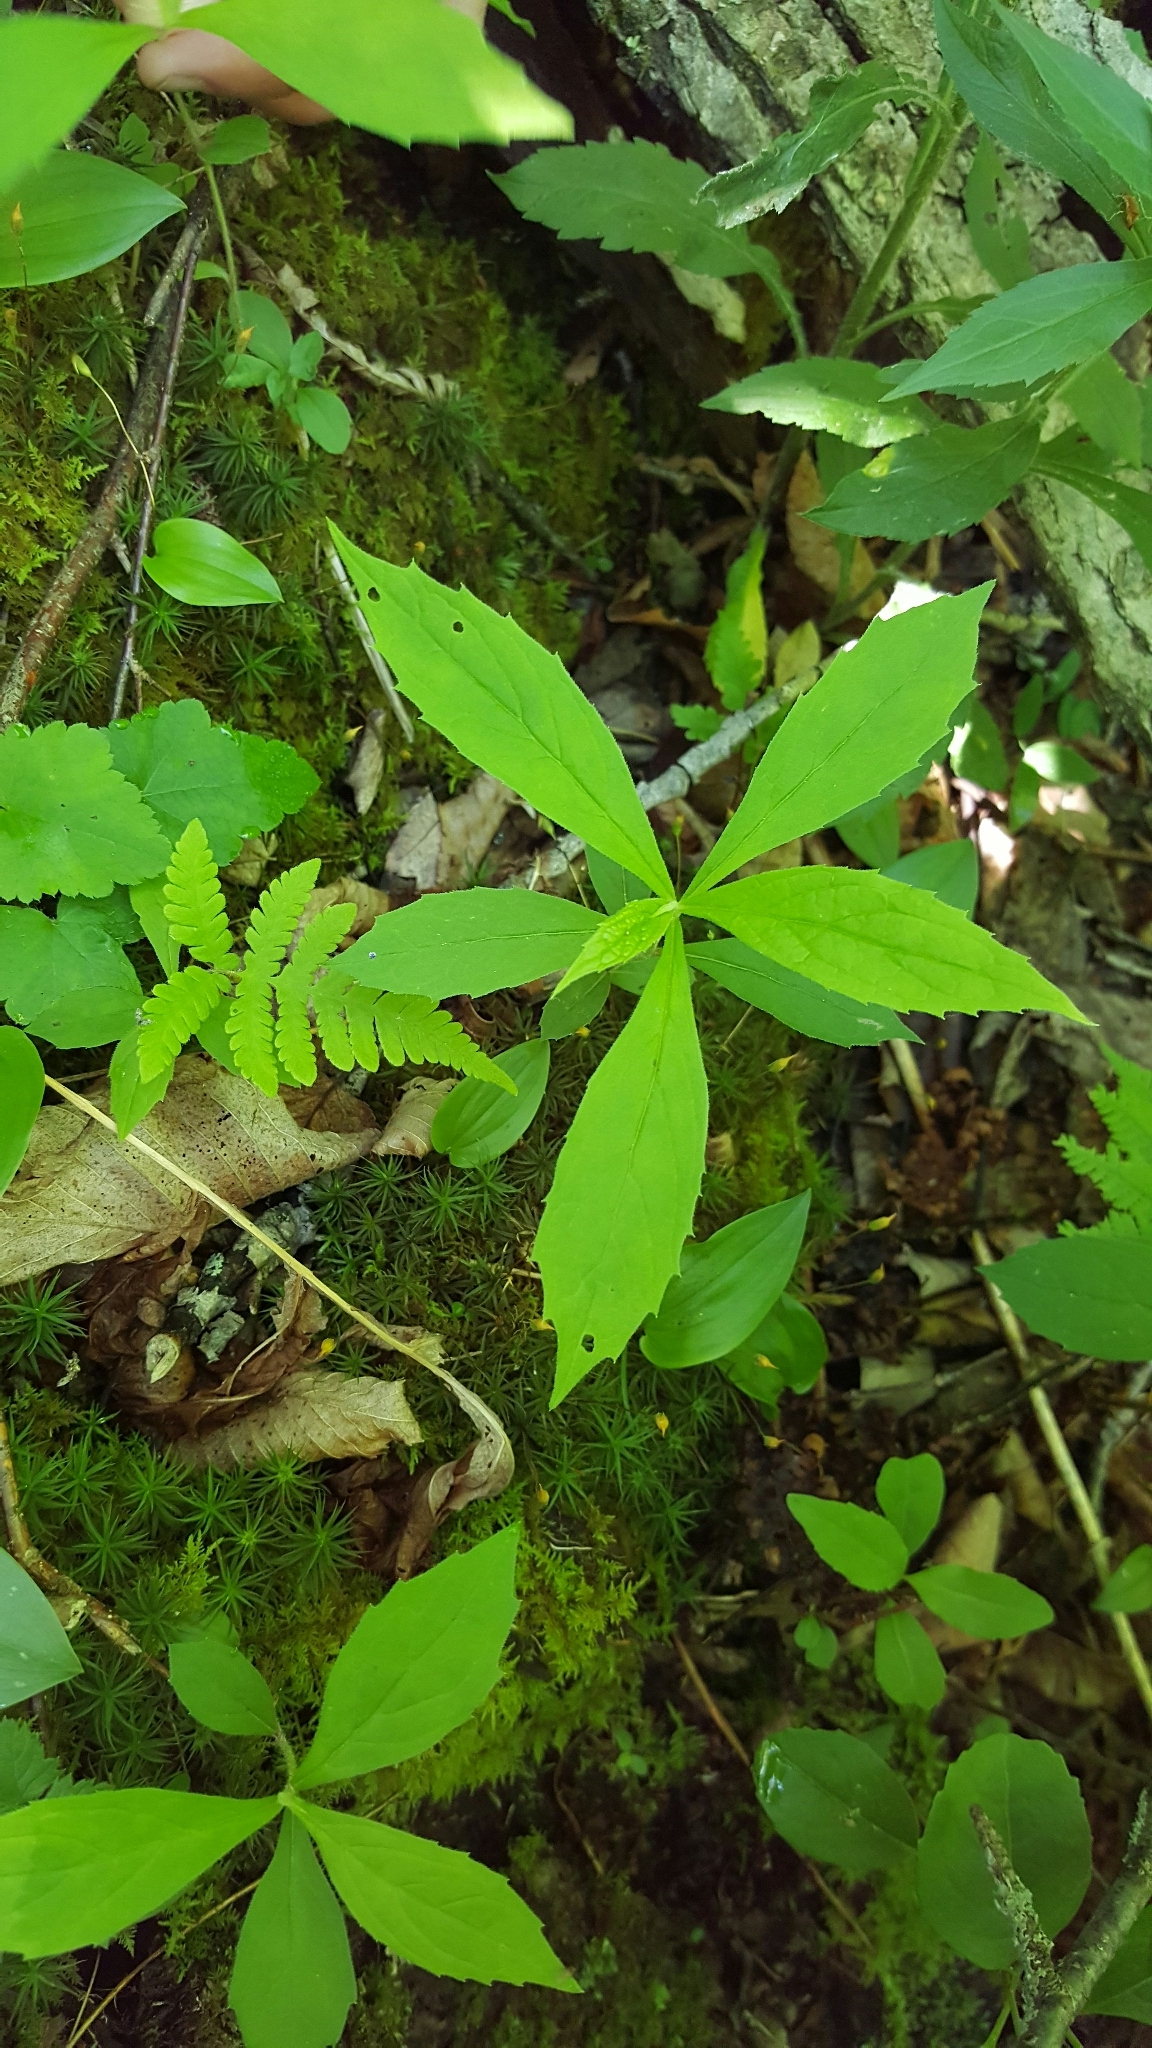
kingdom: Plantae
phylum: Tracheophyta
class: Magnoliopsida
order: Asterales
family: Asteraceae
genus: Oclemena
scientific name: Oclemena acuminata
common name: Mountain aster
